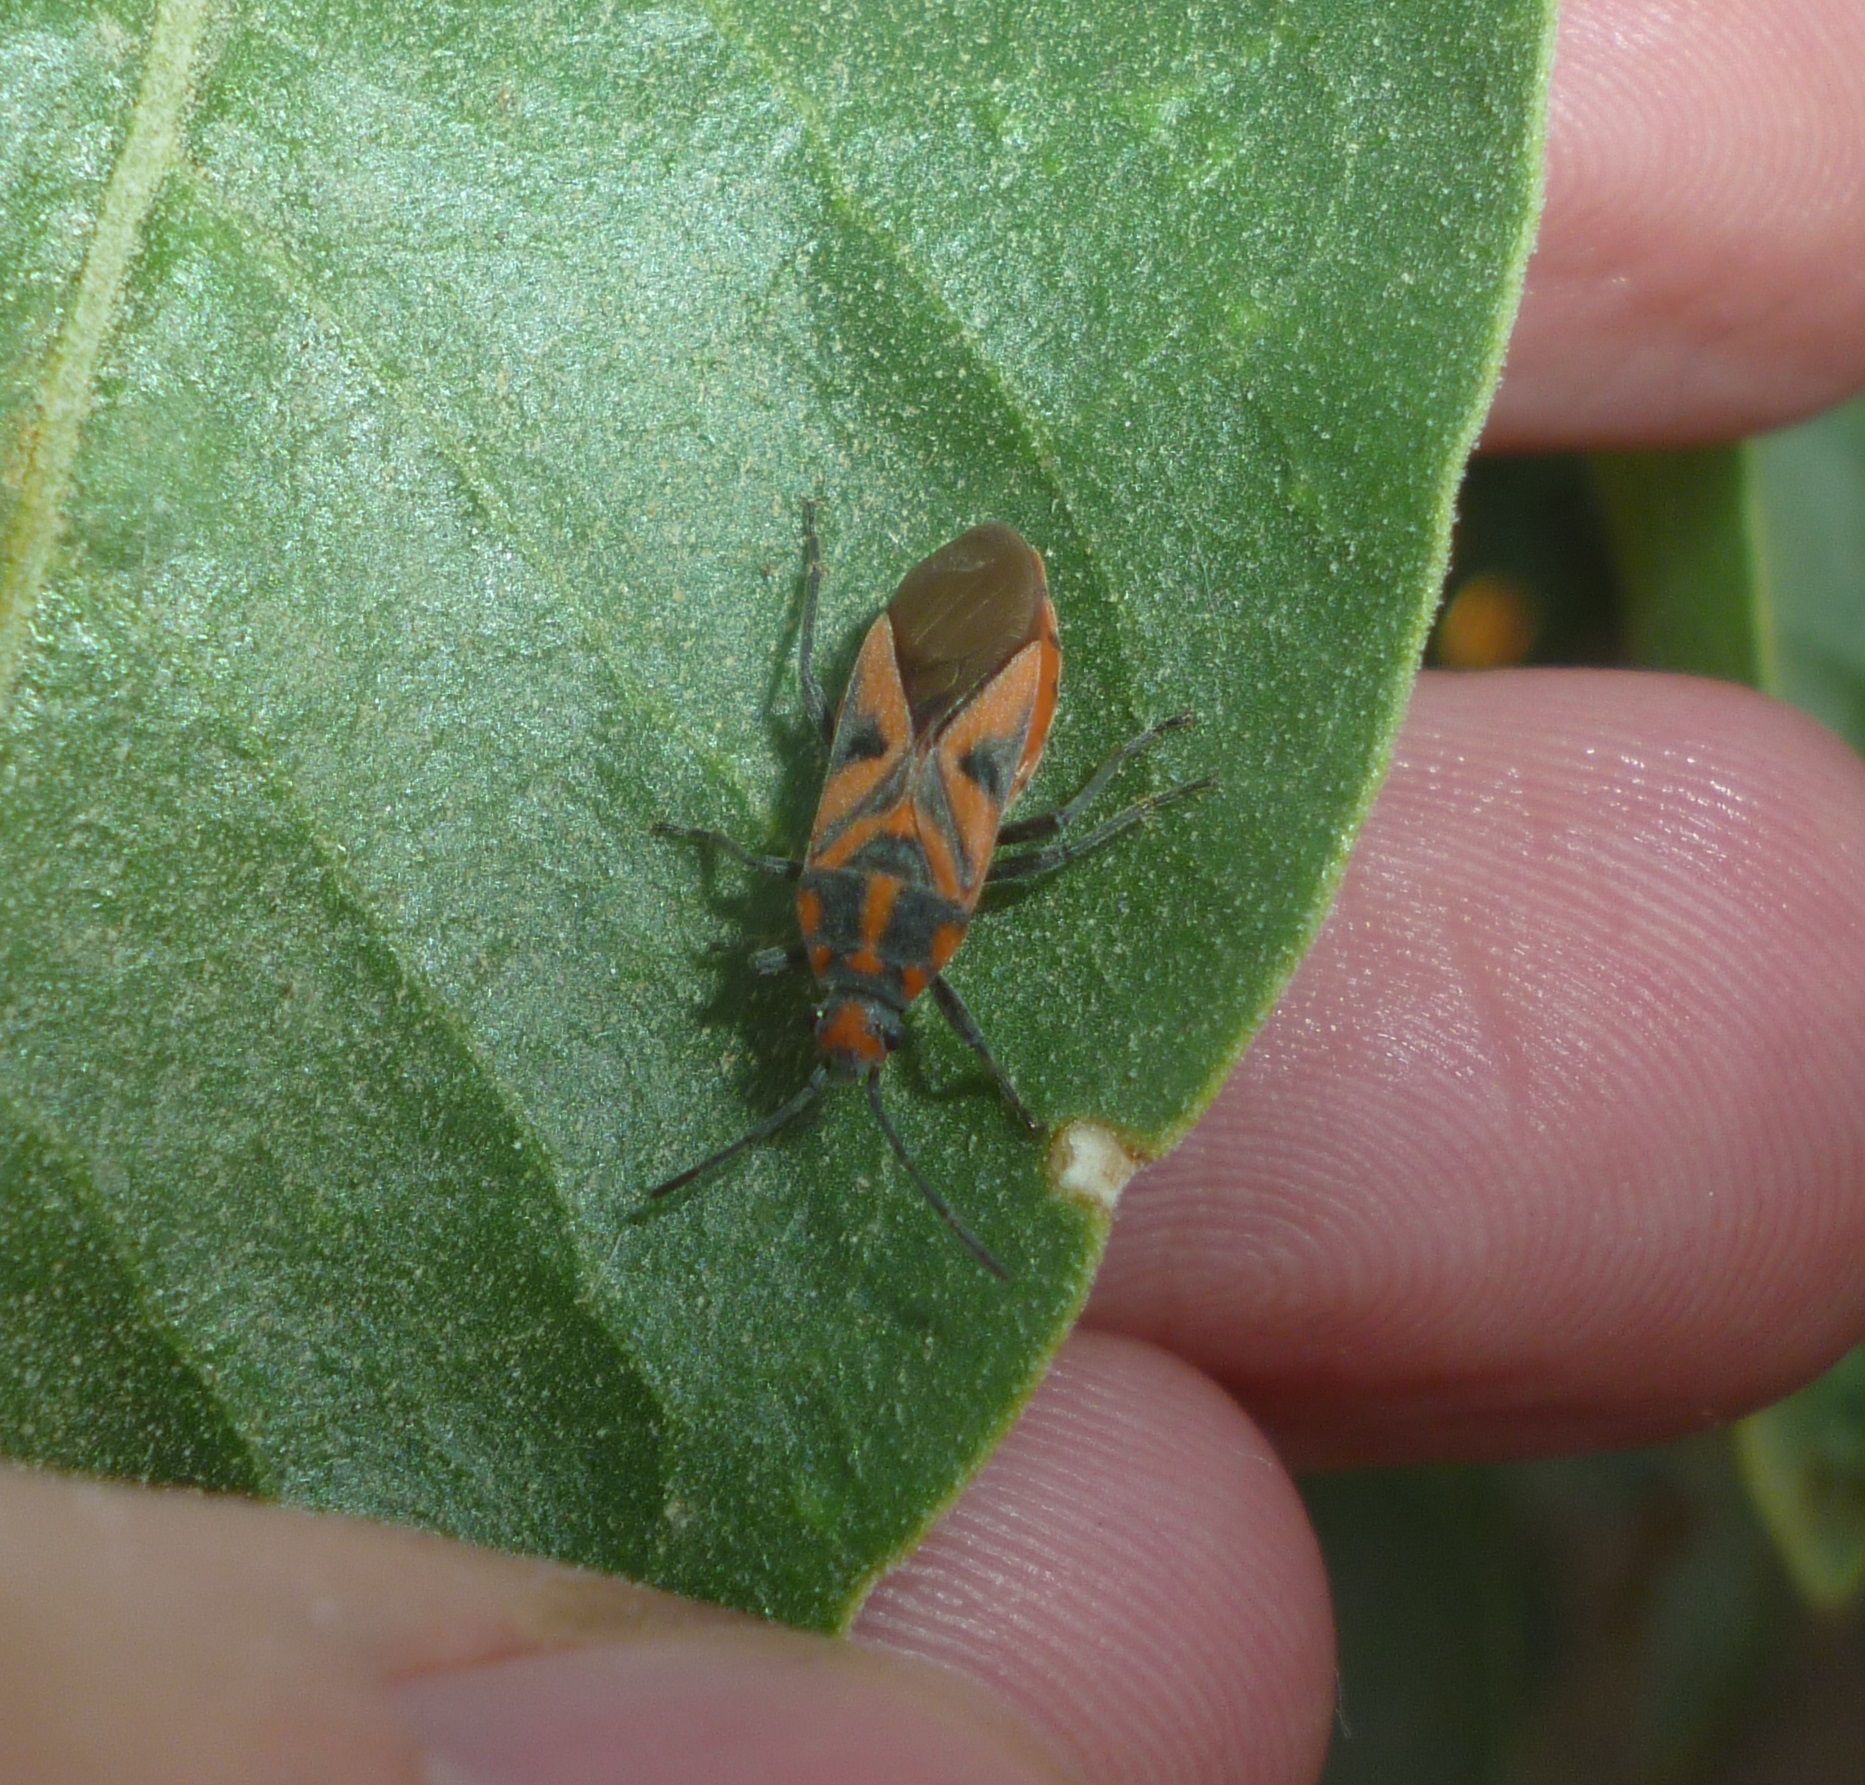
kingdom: Animalia
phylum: Arthropoda
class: Insecta
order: Hemiptera
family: Lygaeidae
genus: Spilostethus
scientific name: Spilostethus furcula
